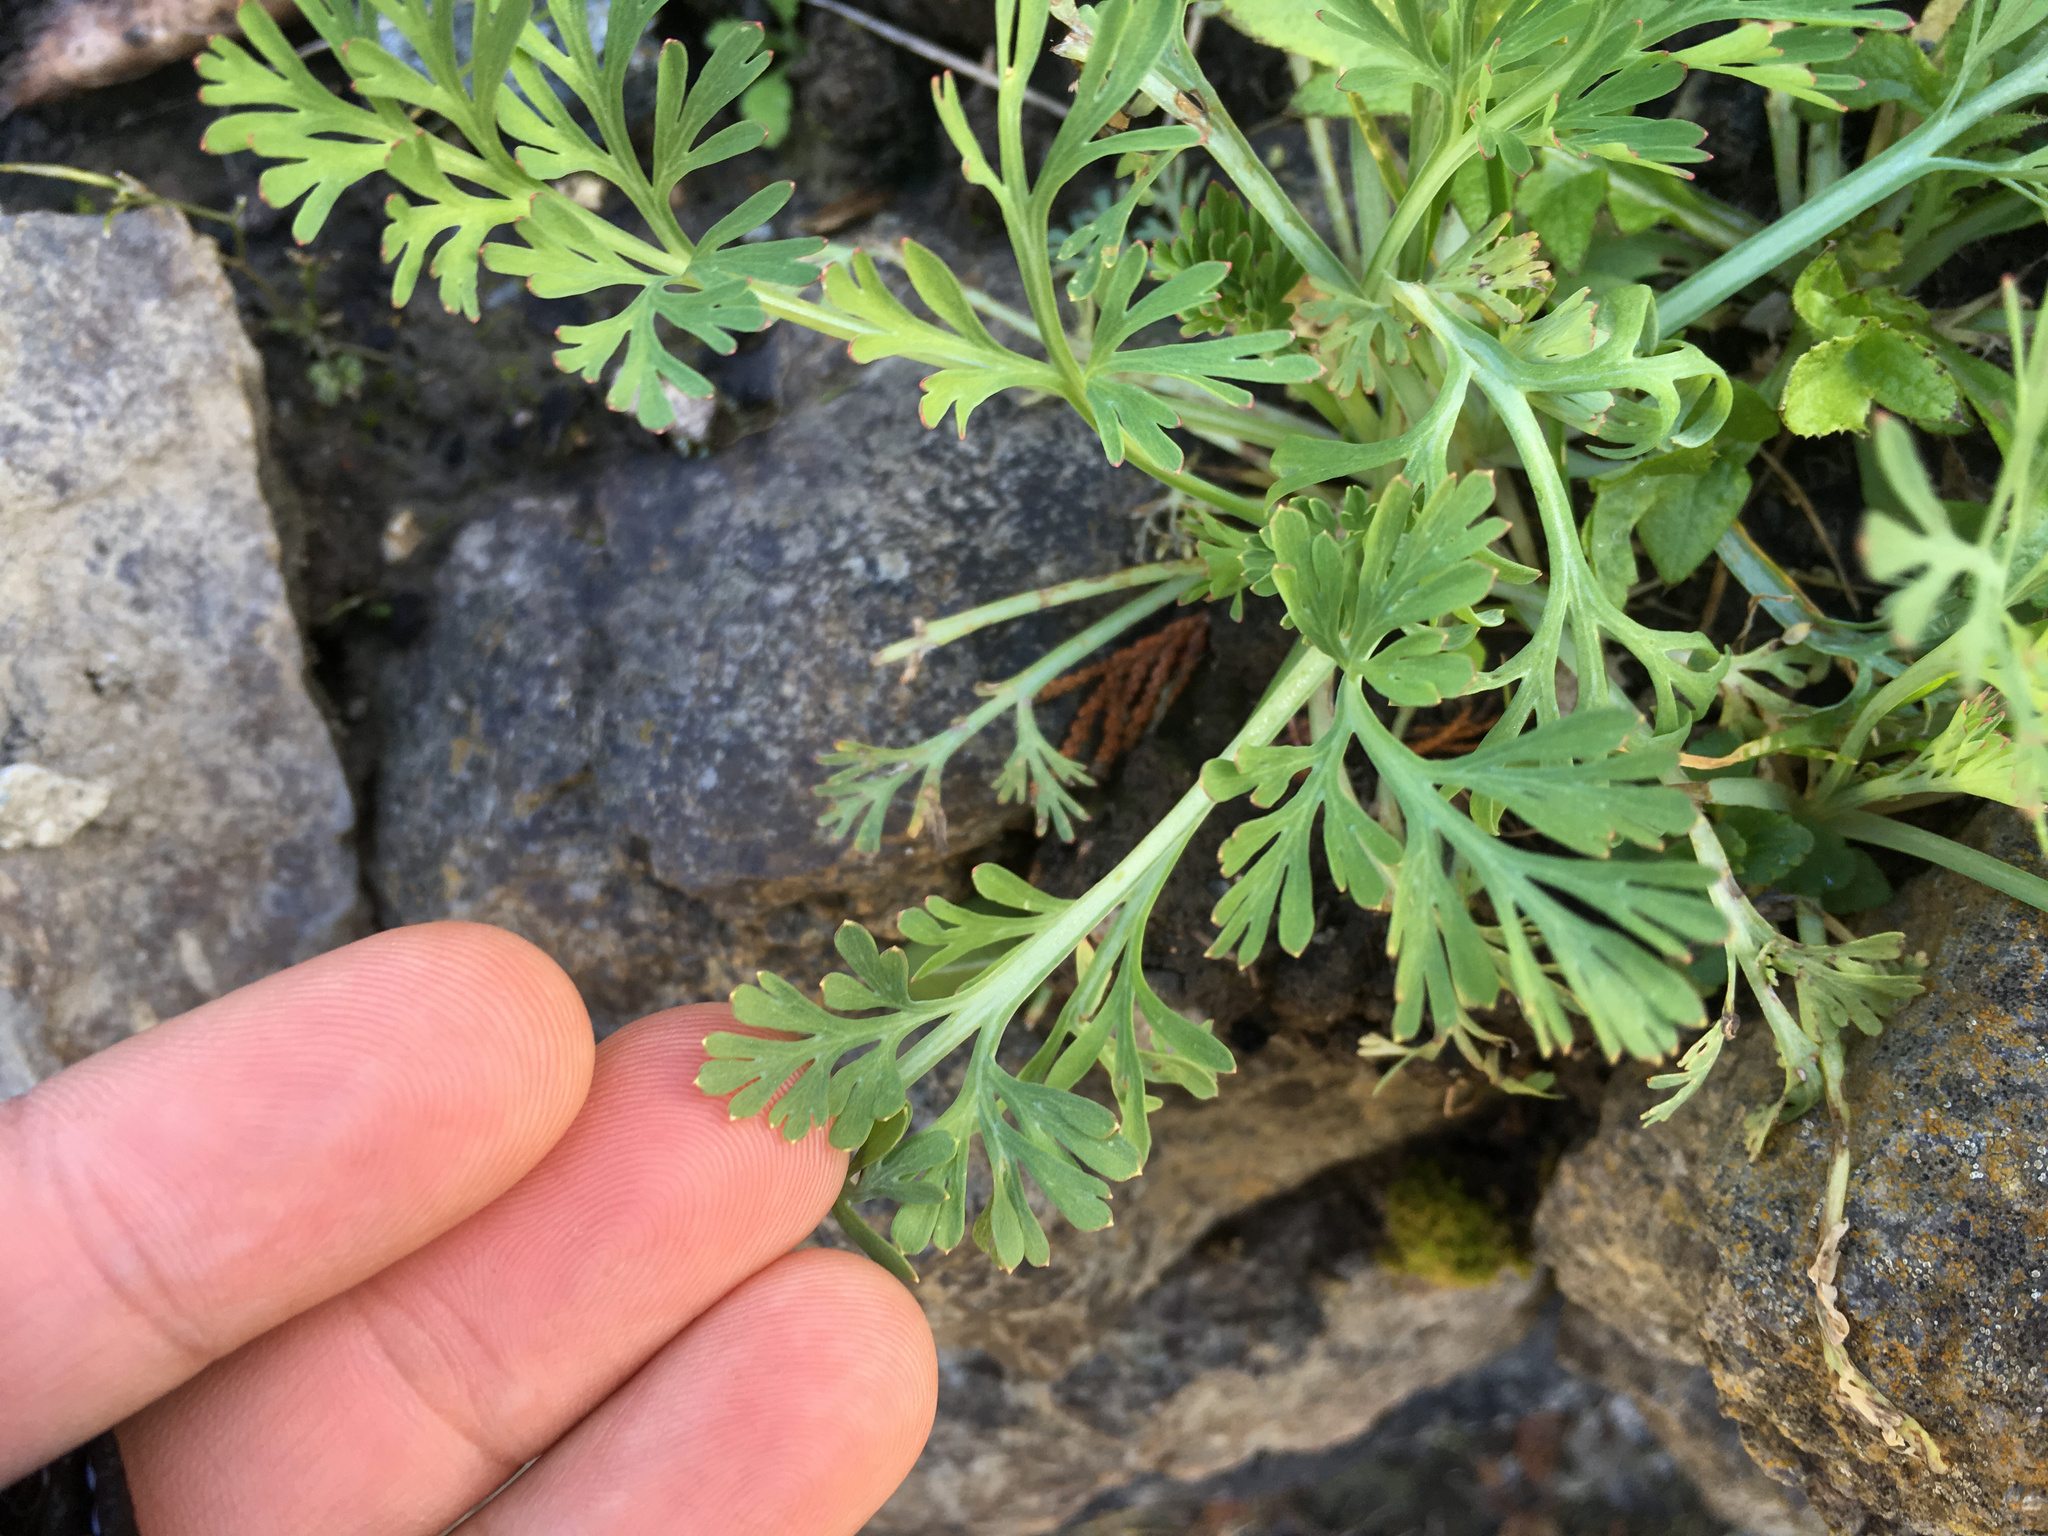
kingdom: Plantae
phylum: Tracheophyta
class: Magnoliopsida
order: Ranunculales
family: Papaveraceae
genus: Eschscholzia
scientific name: Eschscholzia californica
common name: California poppy
